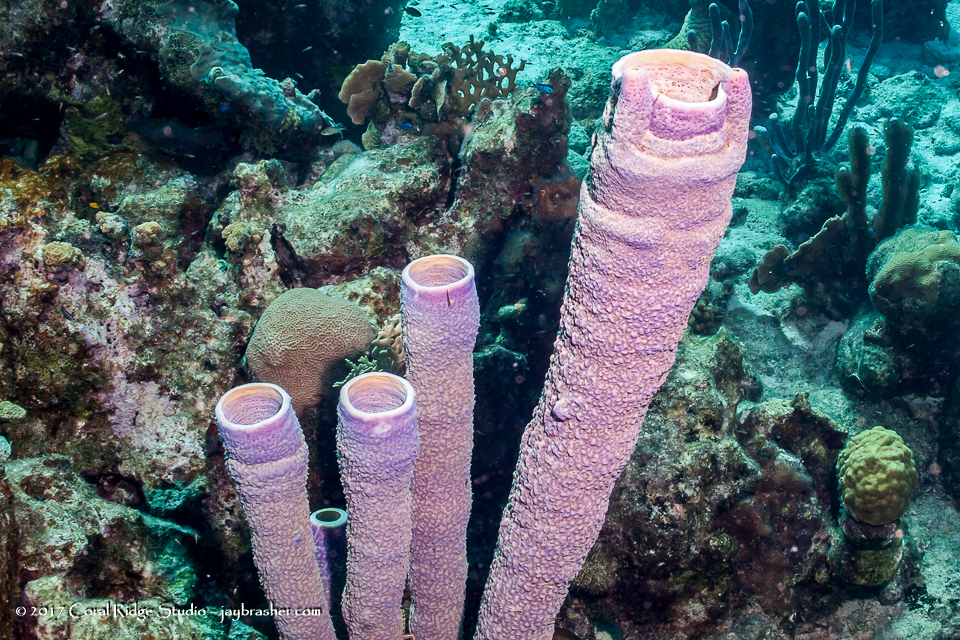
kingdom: Animalia
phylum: Porifera
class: Demospongiae
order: Verongiida
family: Aplysinidae
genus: Aplysina
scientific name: Aplysina archeri
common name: Stove-pipe sponge
